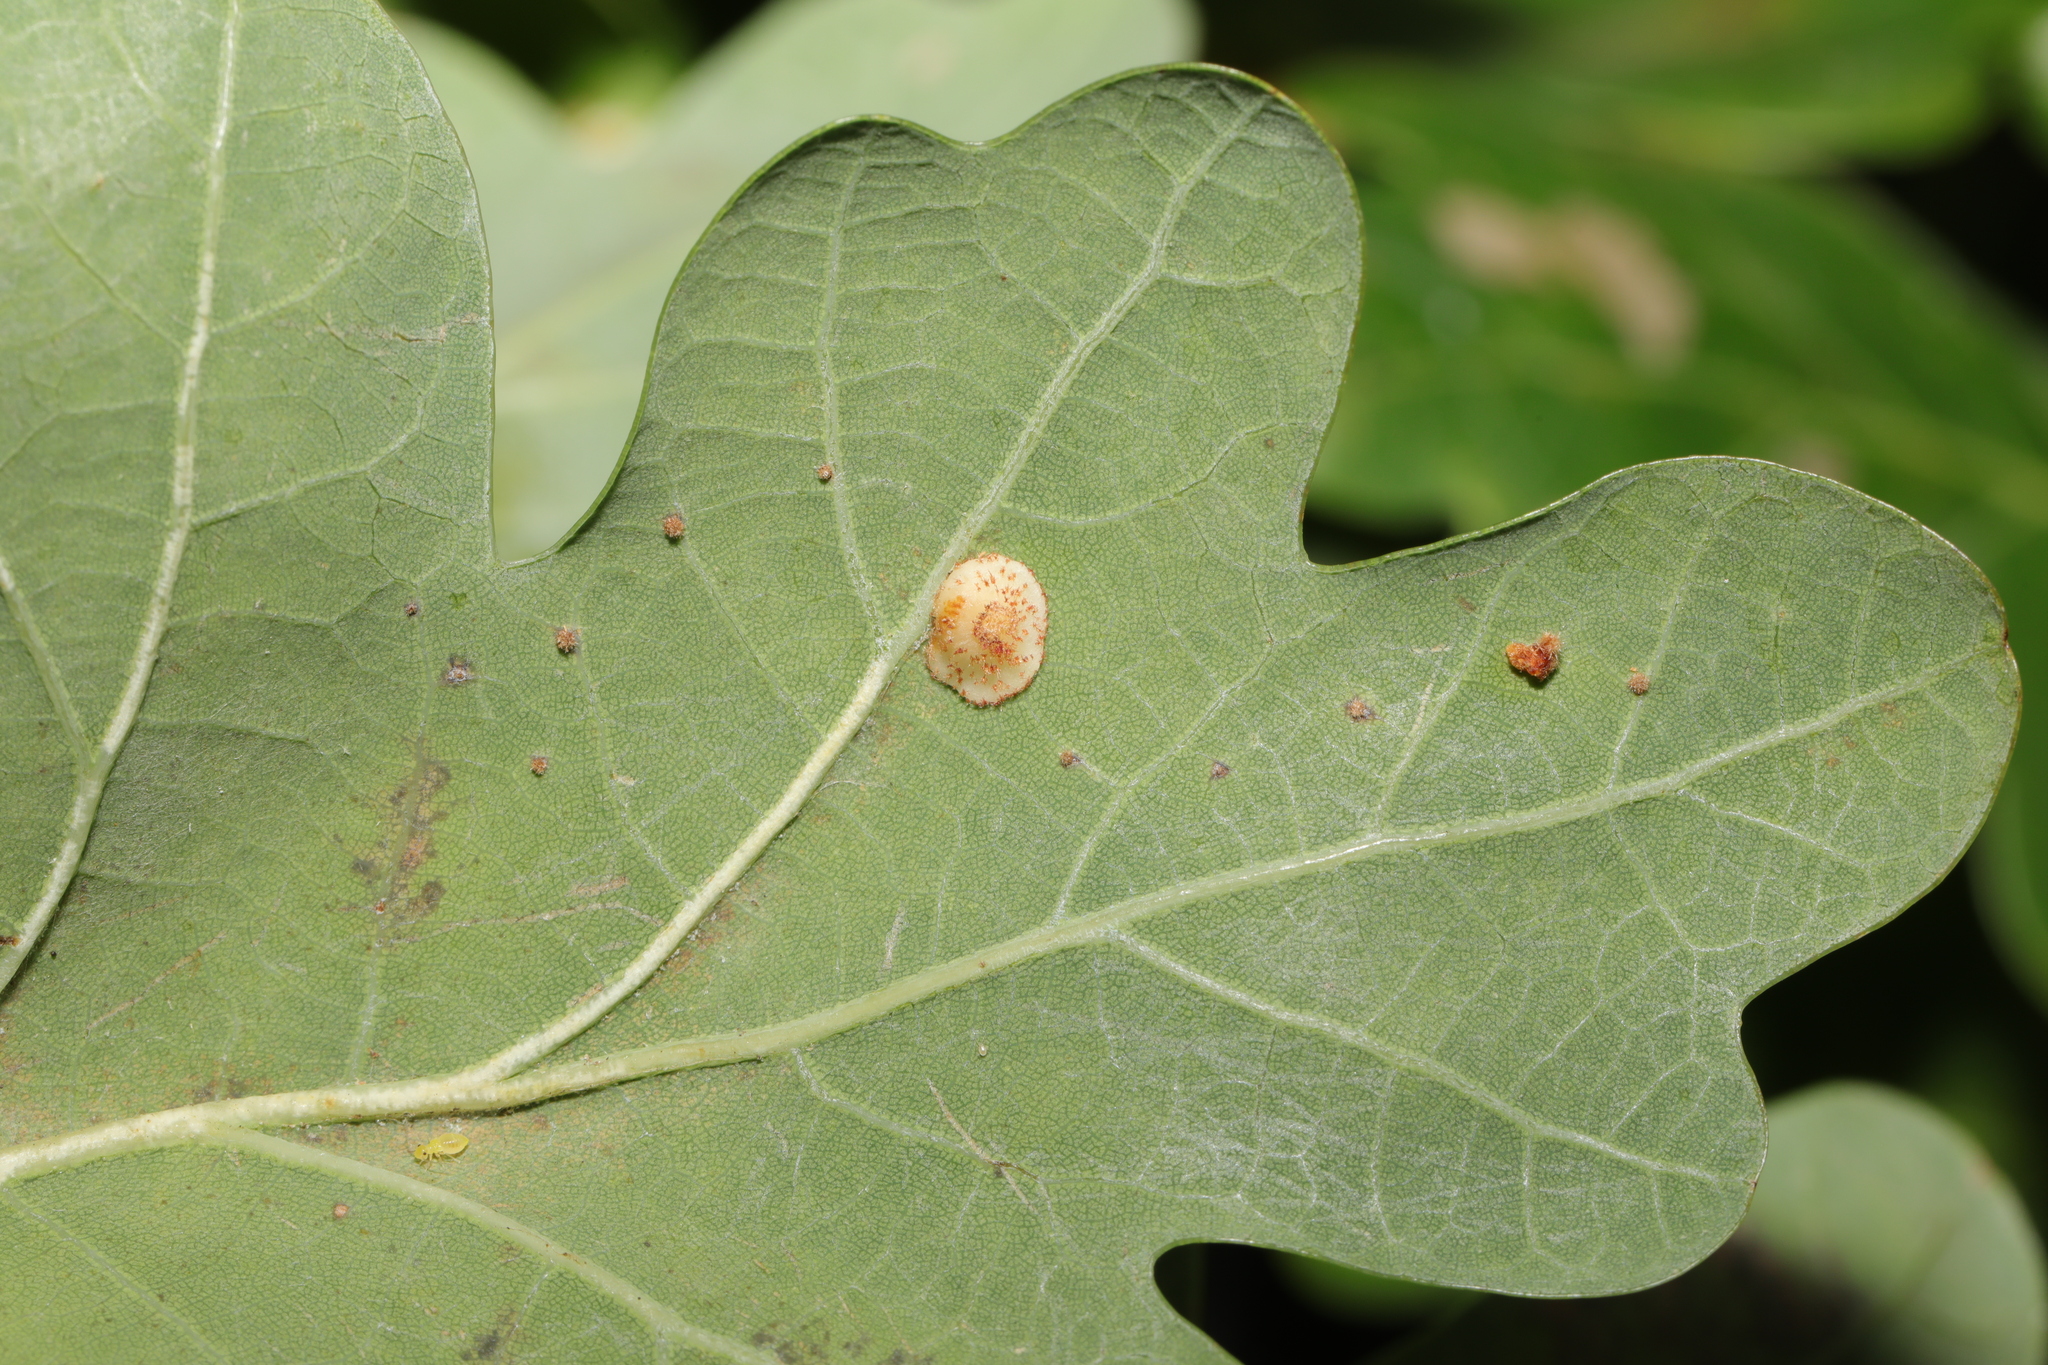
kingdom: Animalia
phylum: Arthropoda
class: Insecta
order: Hymenoptera
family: Cynipidae
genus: Neuroterus
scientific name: Neuroterus quercusbaccarum
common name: Common spangle gall
